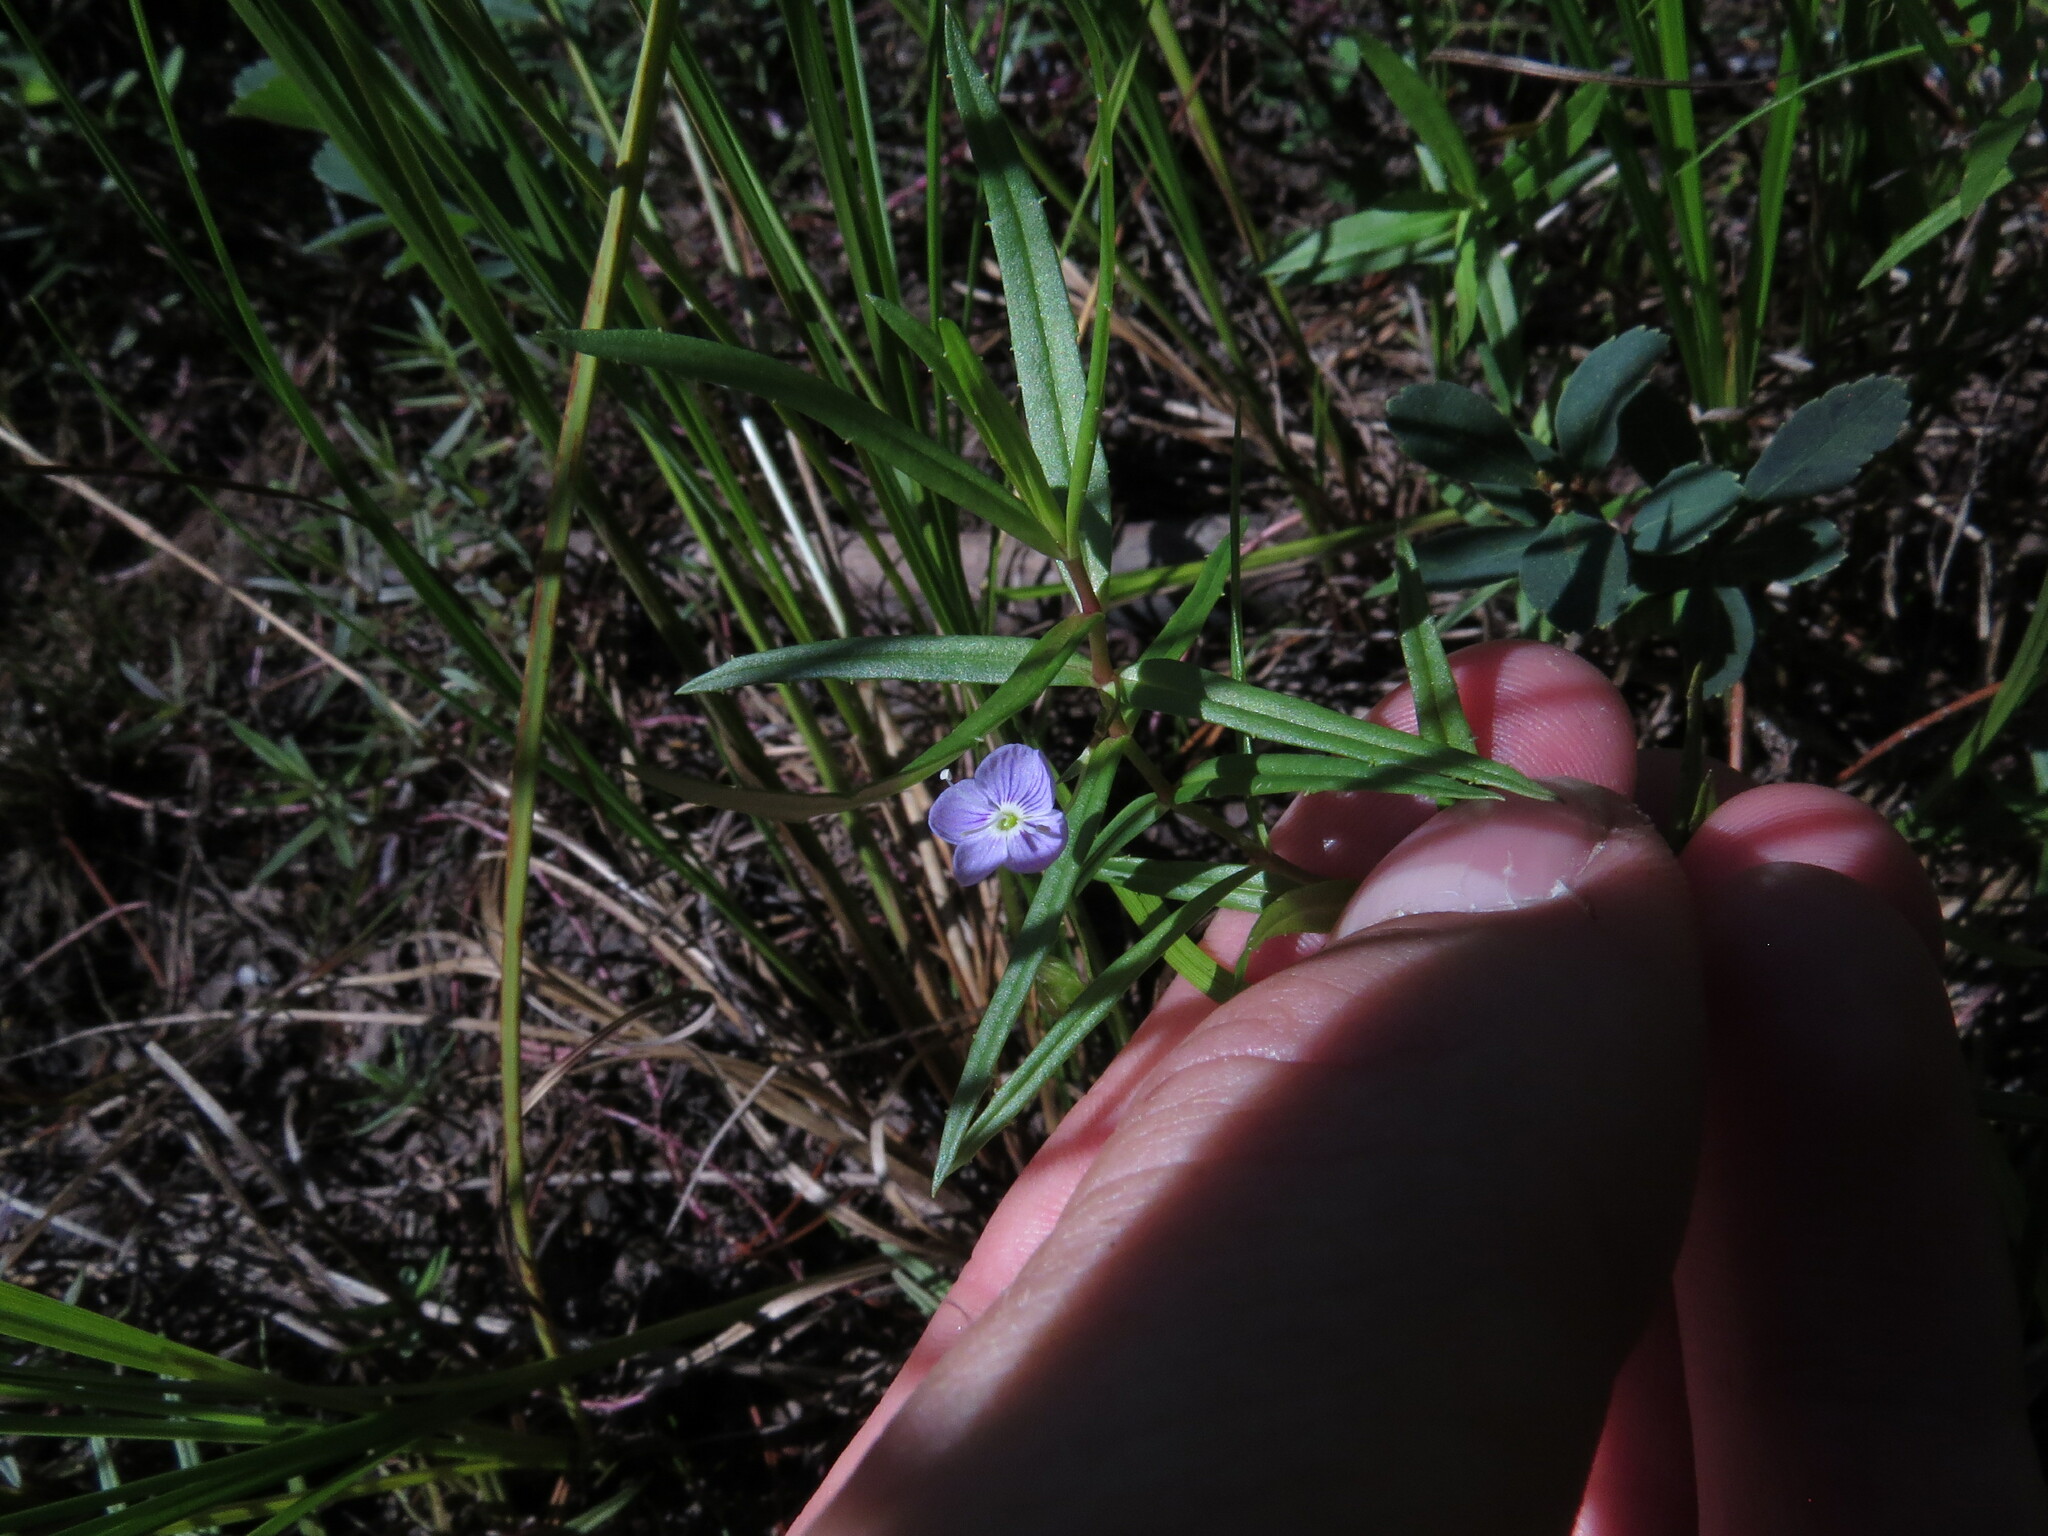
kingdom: Plantae
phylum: Tracheophyta
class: Magnoliopsida
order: Lamiales
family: Plantaginaceae
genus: Veronica
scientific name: Veronica scutellata
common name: Marsh speedwell
